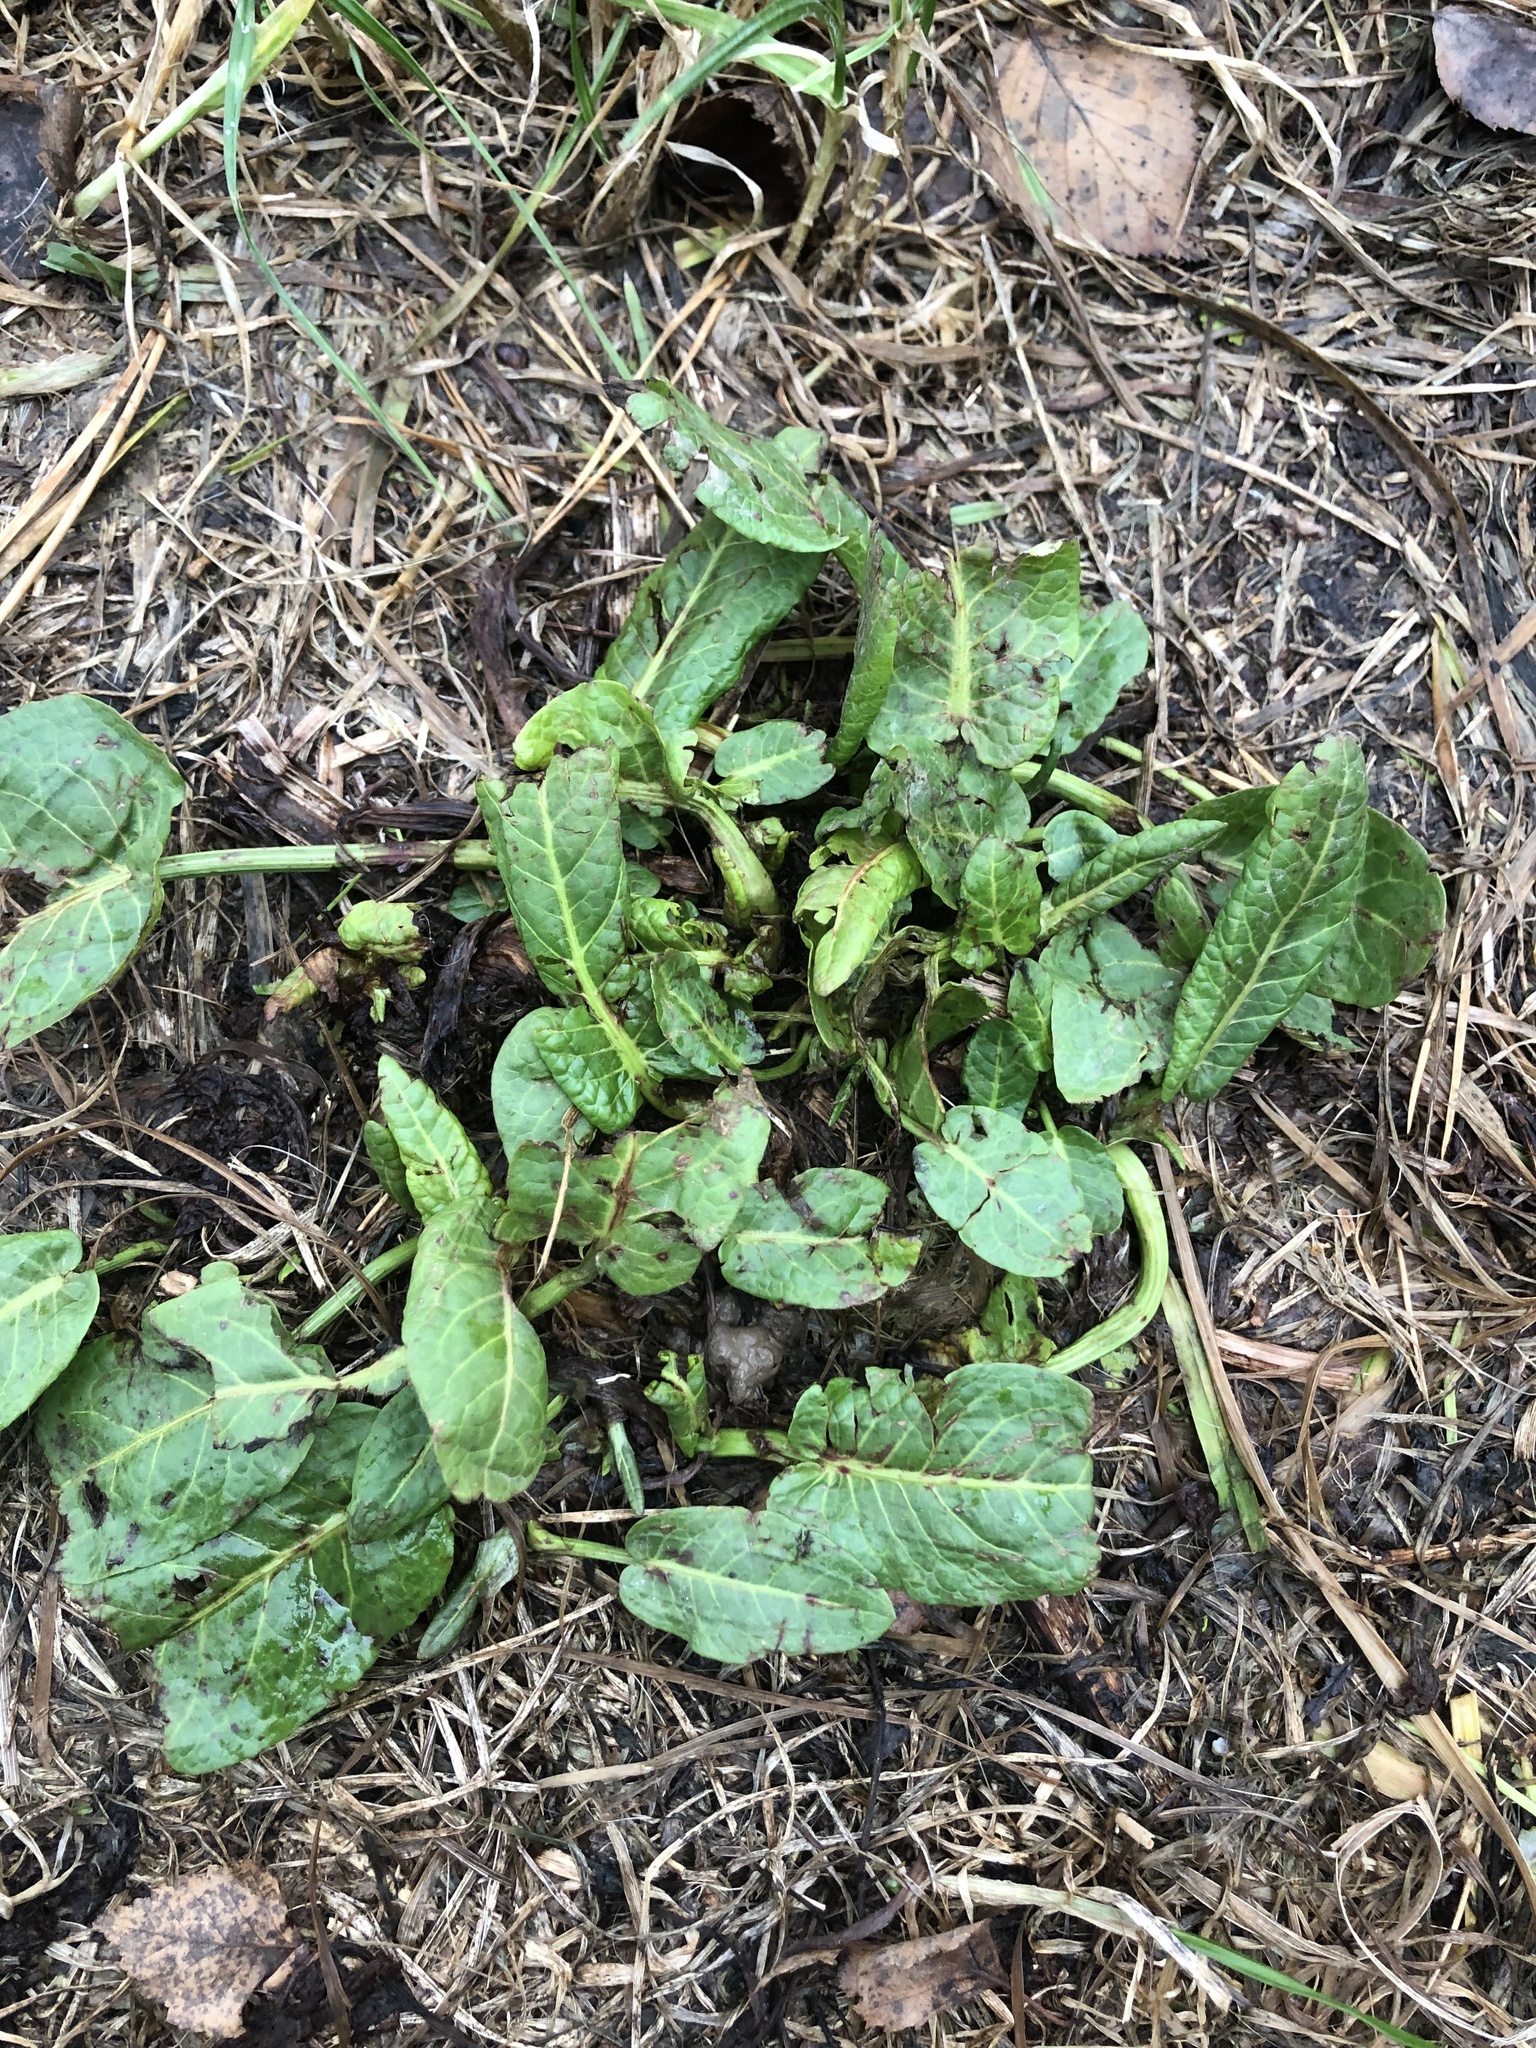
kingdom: Plantae
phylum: Tracheophyta
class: Magnoliopsida
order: Caryophyllales
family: Polygonaceae
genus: Rumex
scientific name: Rumex obtusifolius
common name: Bitter dock
